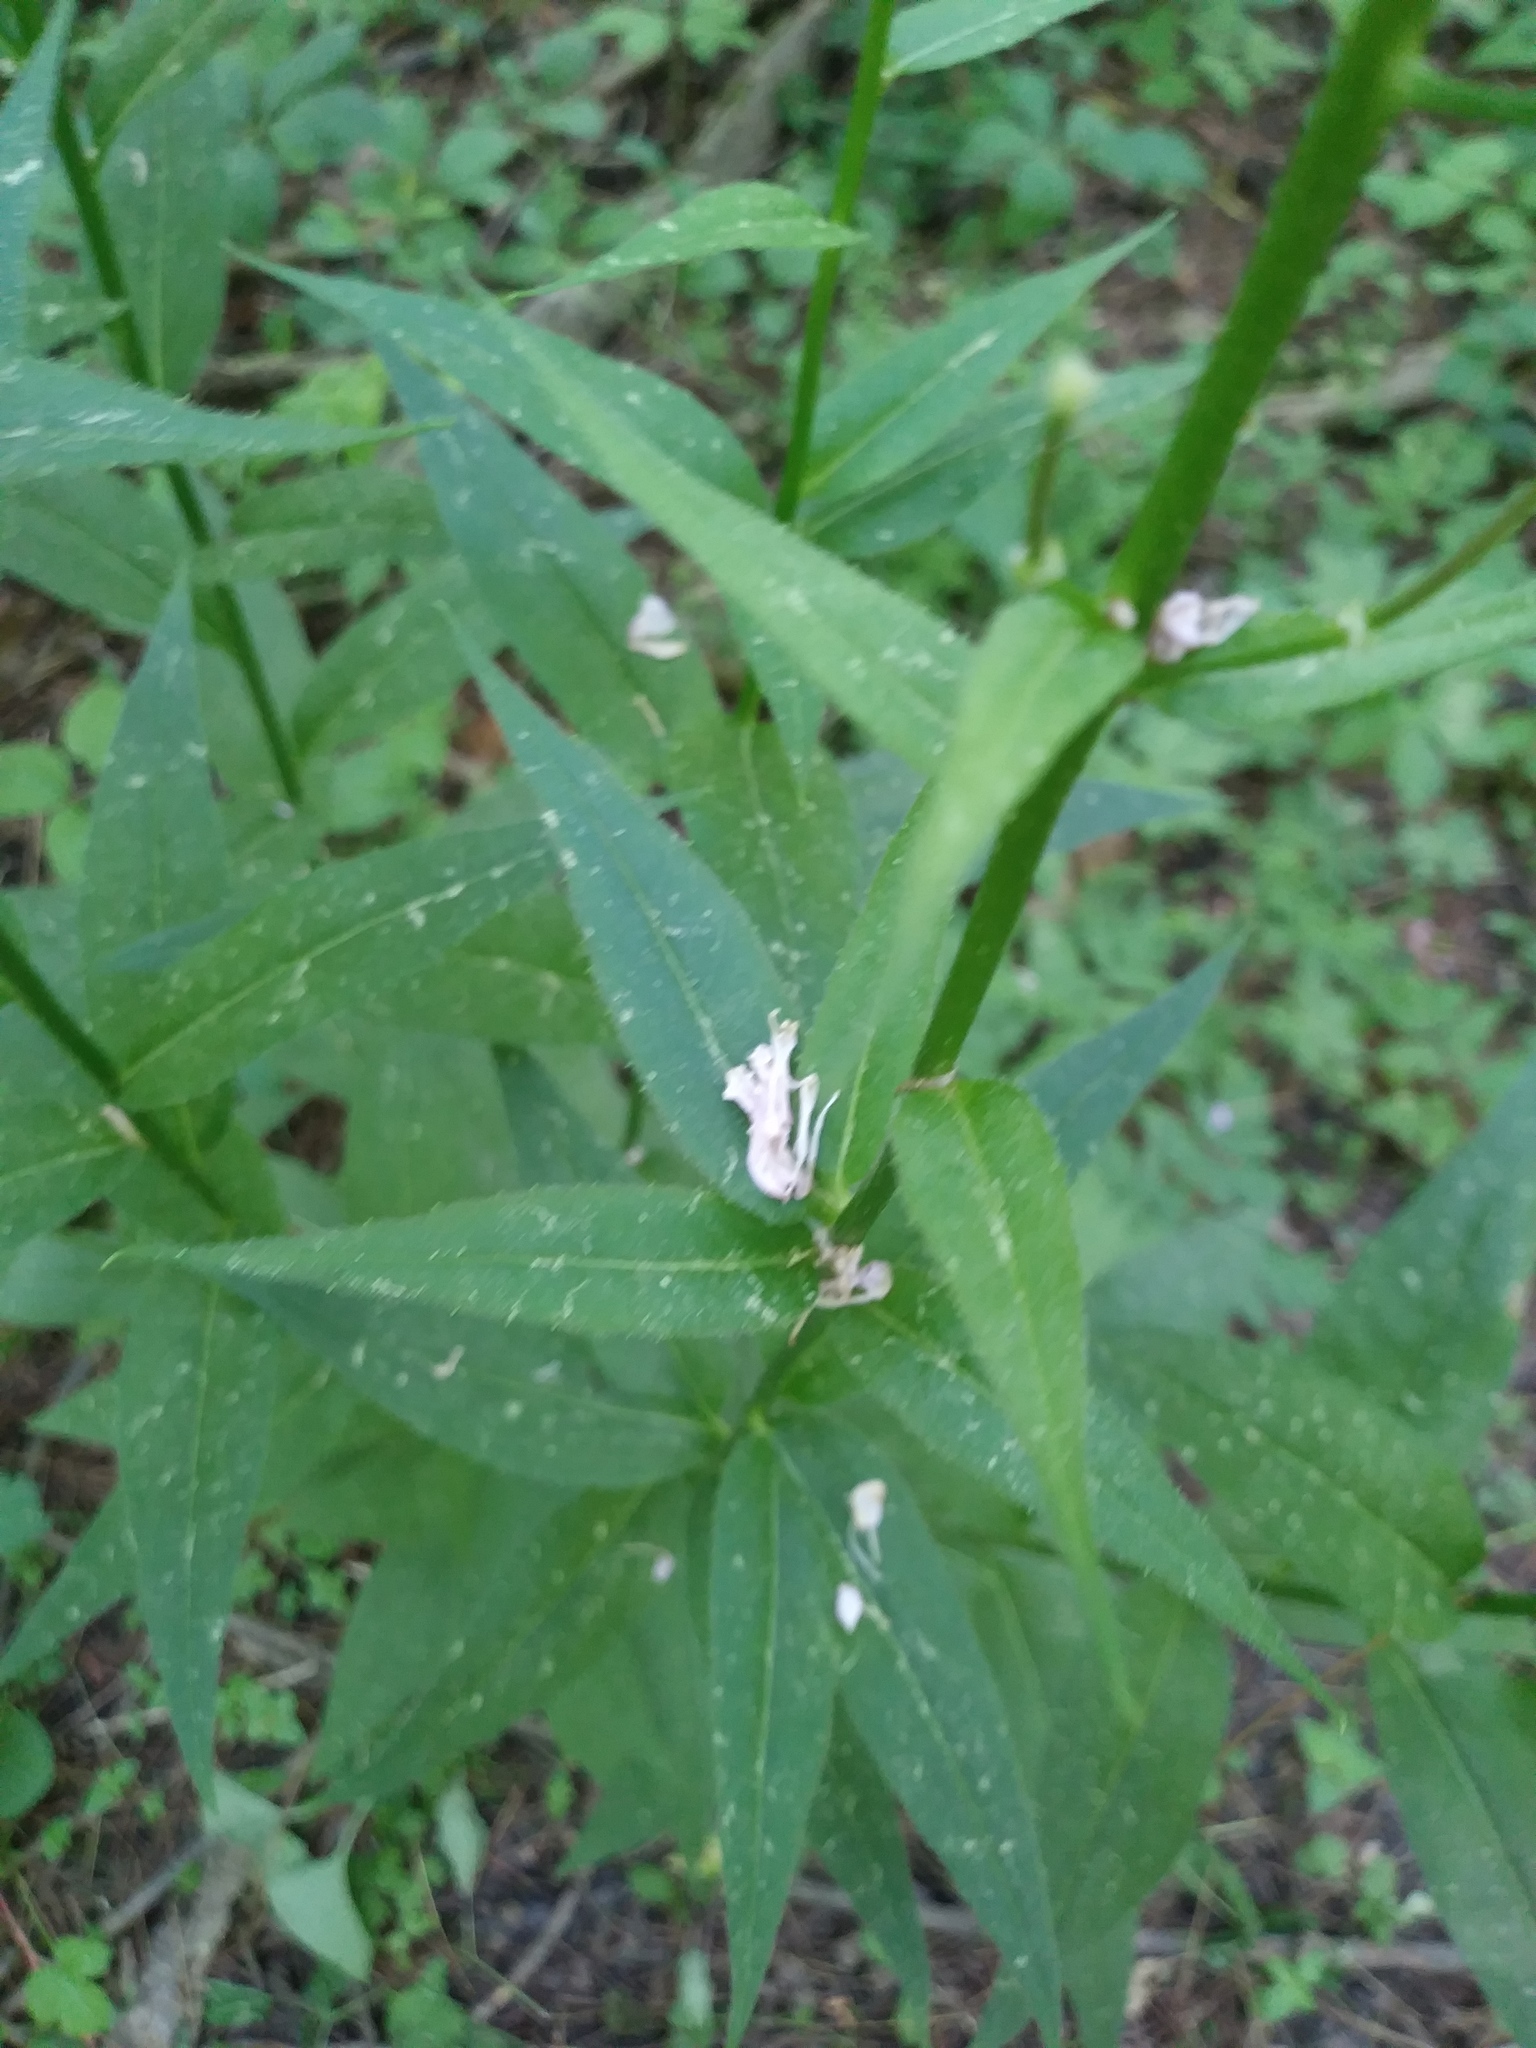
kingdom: Plantae
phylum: Tracheophyta
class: Magnoliopsida
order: Brassicales
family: Brassicaceae
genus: Hesperis
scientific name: Hesperis matronalis
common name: Dame's-violet
